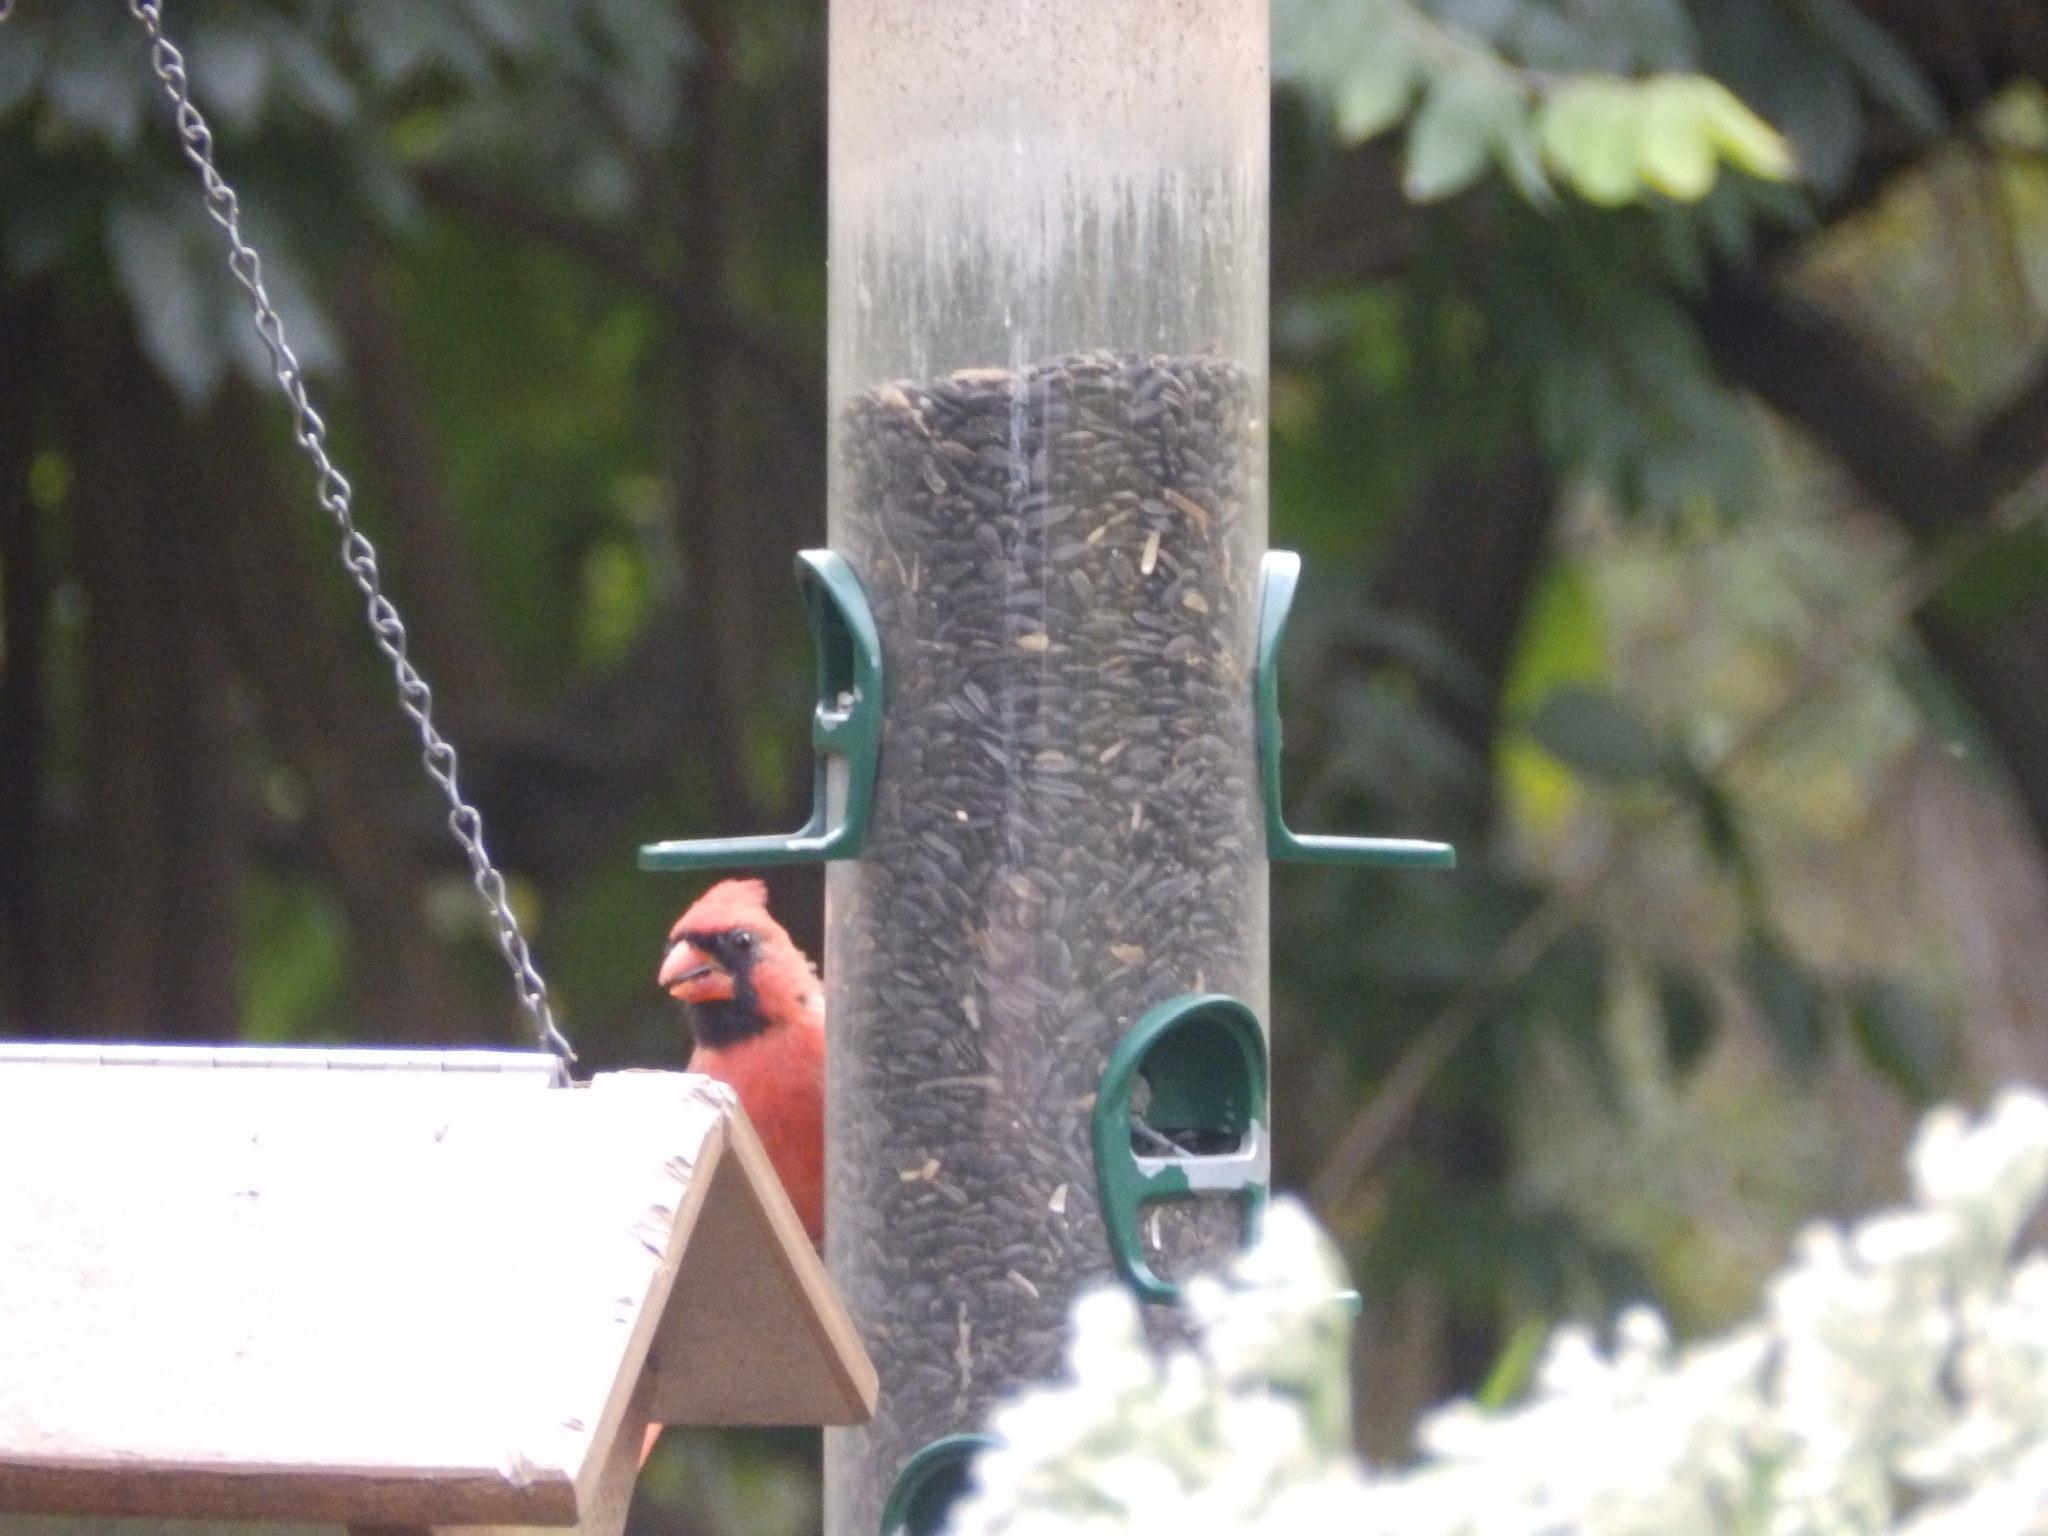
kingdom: Animalia
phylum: Chordata
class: Aves
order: Passeriformes
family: Cardinalidae
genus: Cardinalis
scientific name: Cardinalis cardinalis
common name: Northern cardinal
